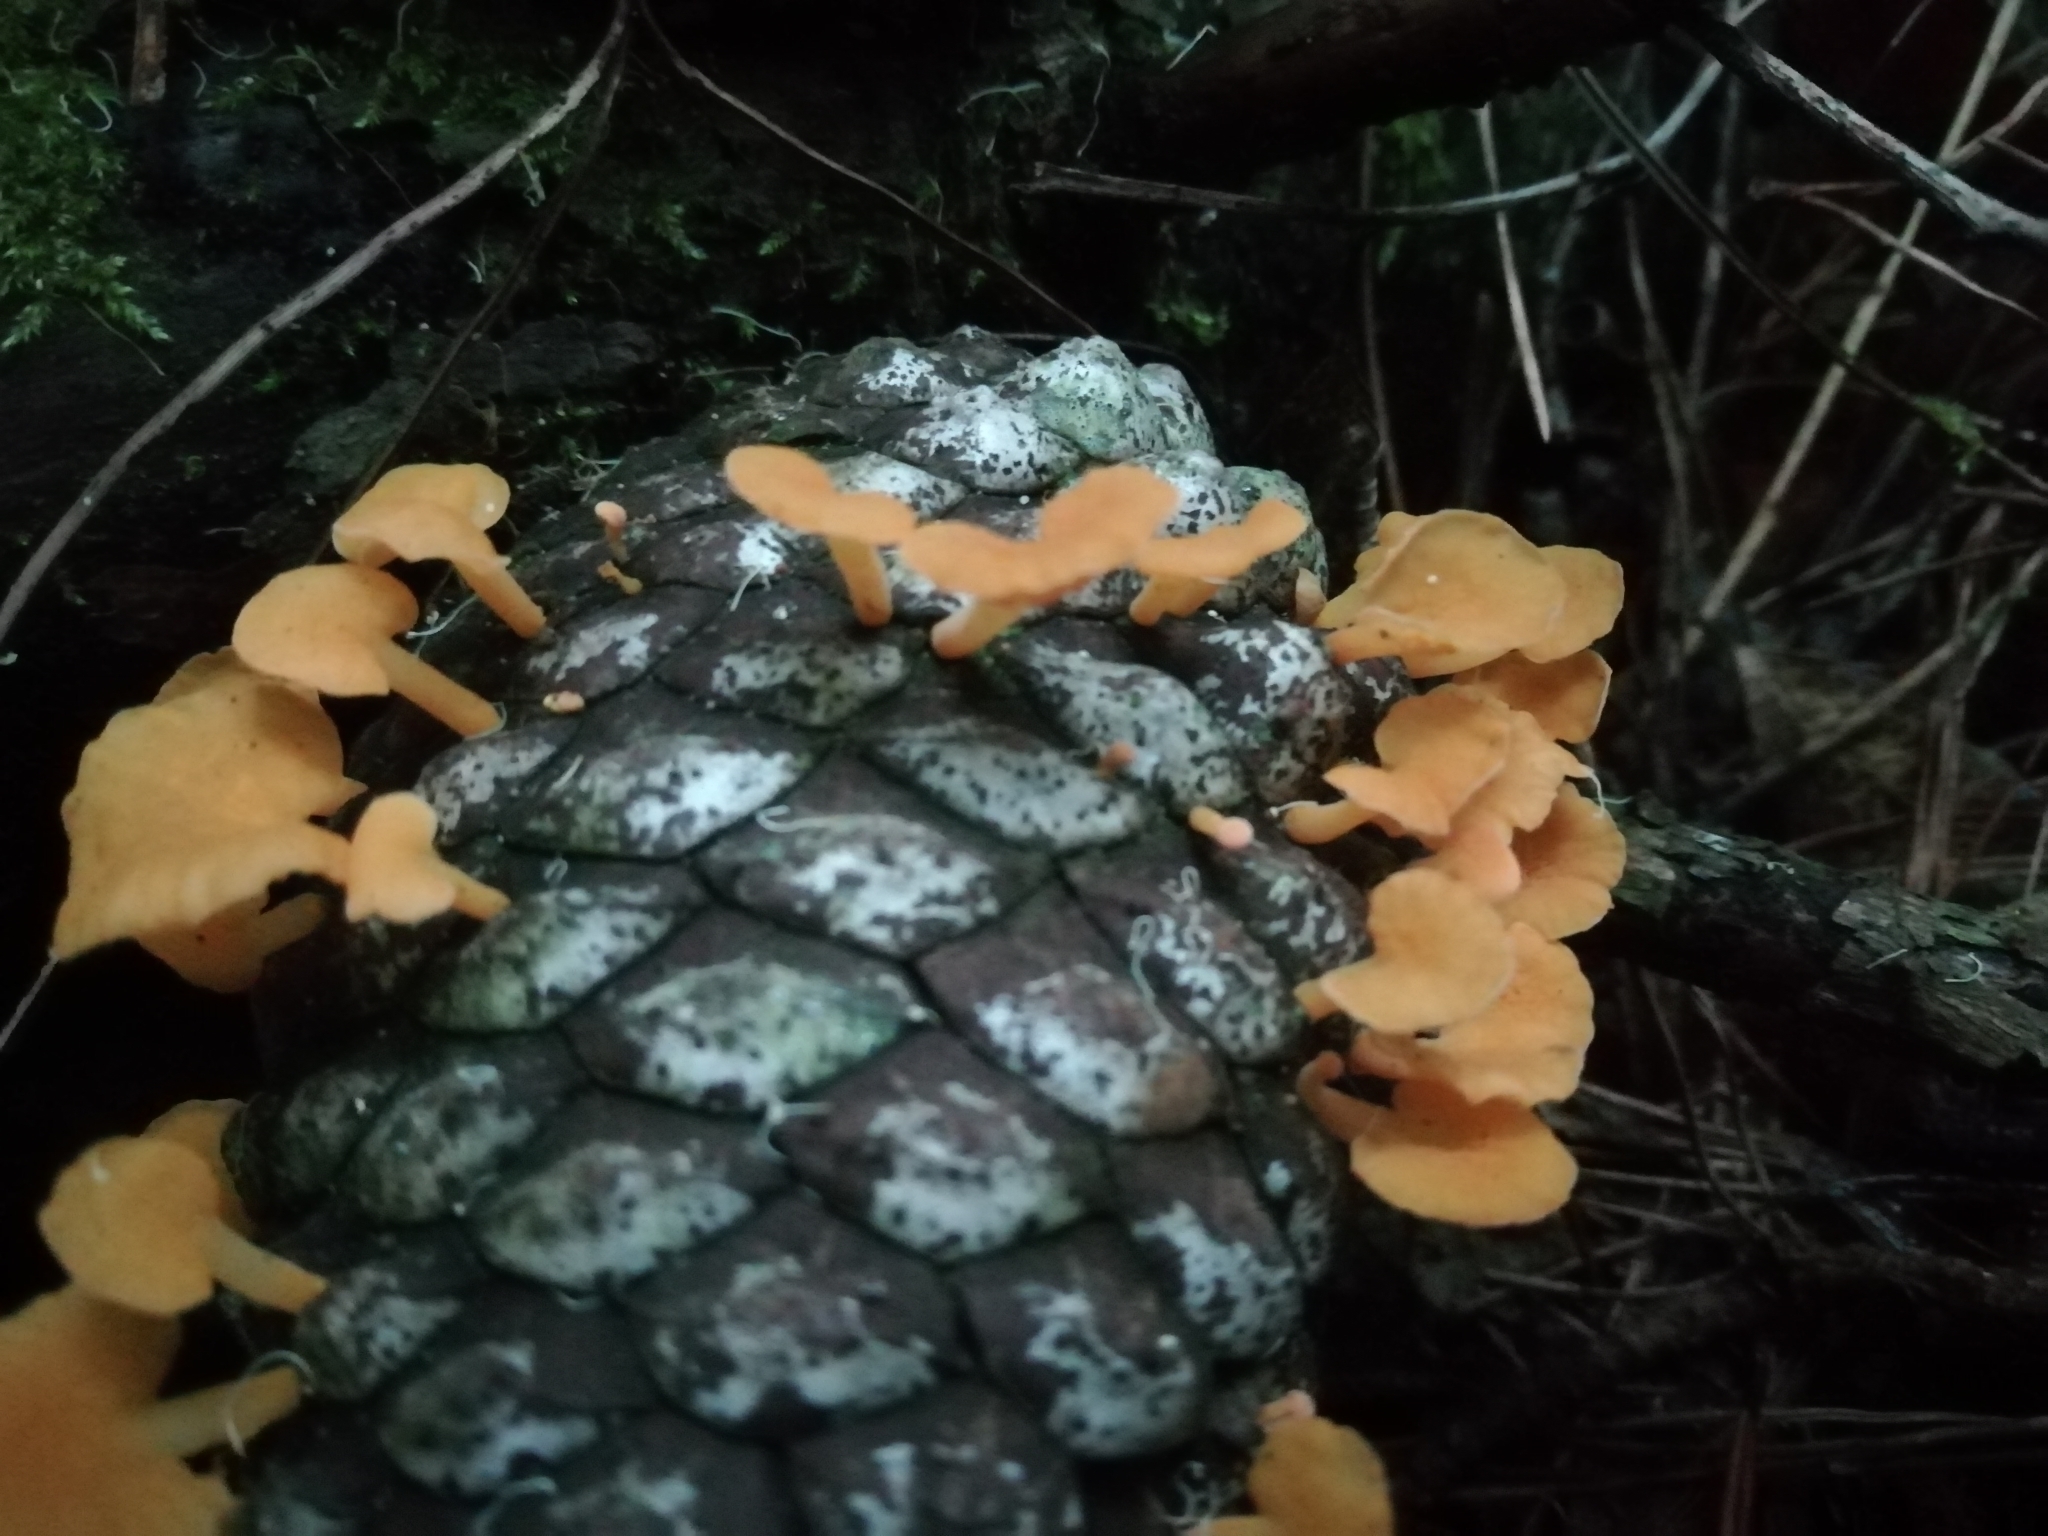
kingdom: Fungi
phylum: Basidiomycota
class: Agaricomycetes
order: Agaricales
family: Mycenaceae
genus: Favolaschia
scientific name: Favolaschia thwaitesii
